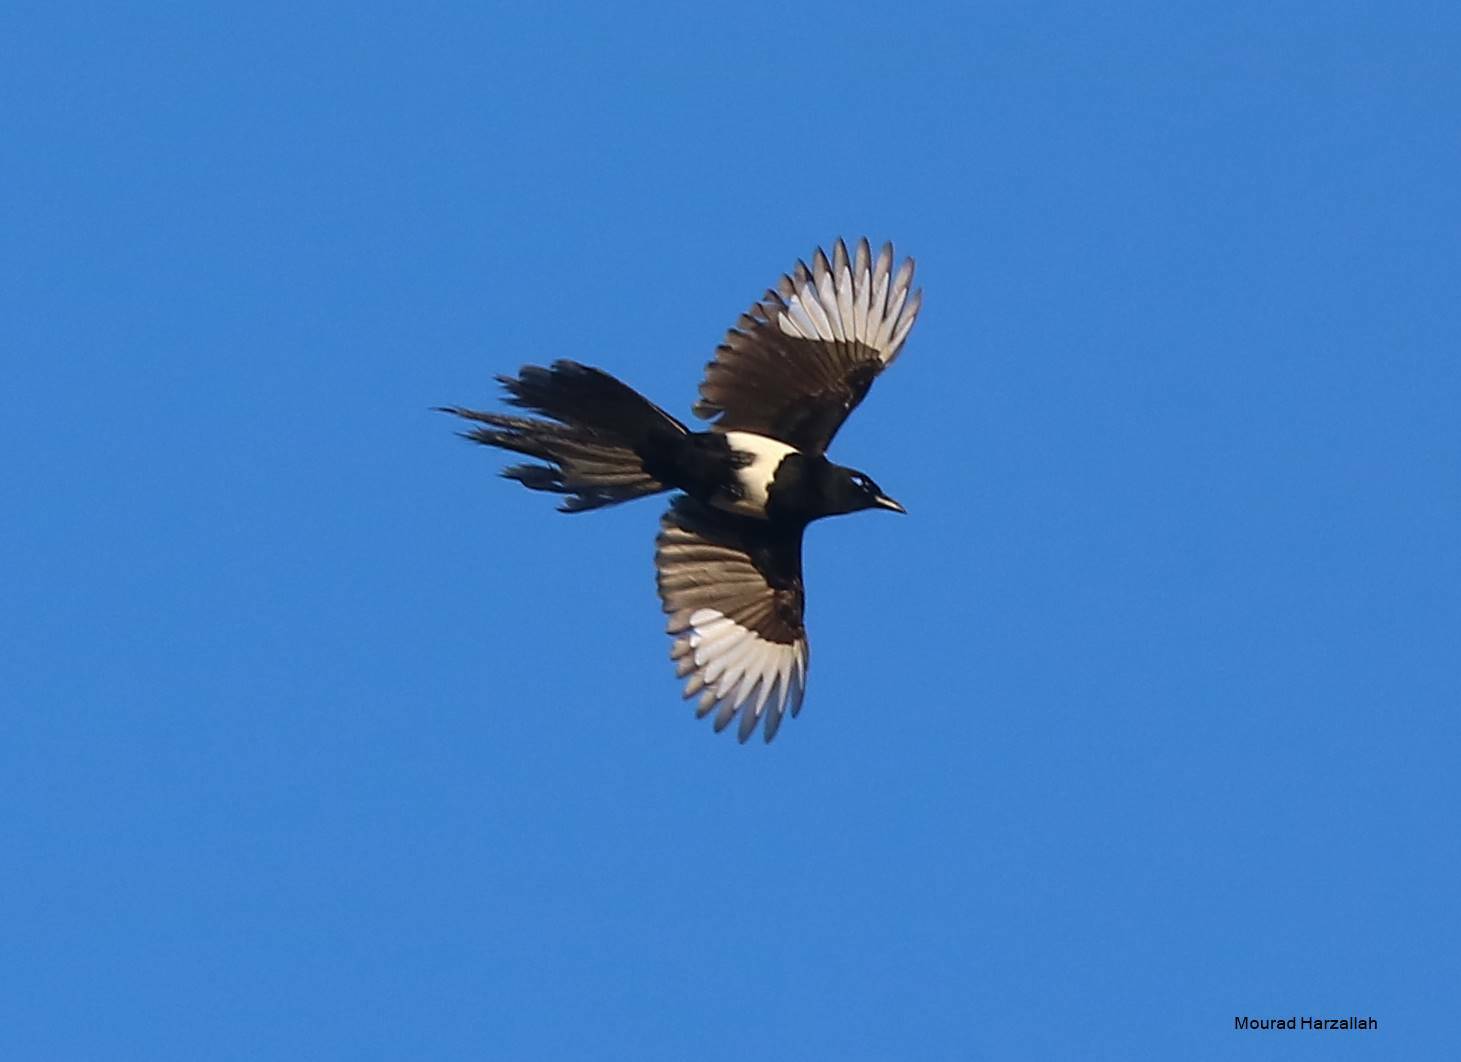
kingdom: Animalia
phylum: Chordata
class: Aves
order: Passeriformes
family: Corvidae
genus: Pica
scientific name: Pica mauritanica
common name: Maghreb magpie
